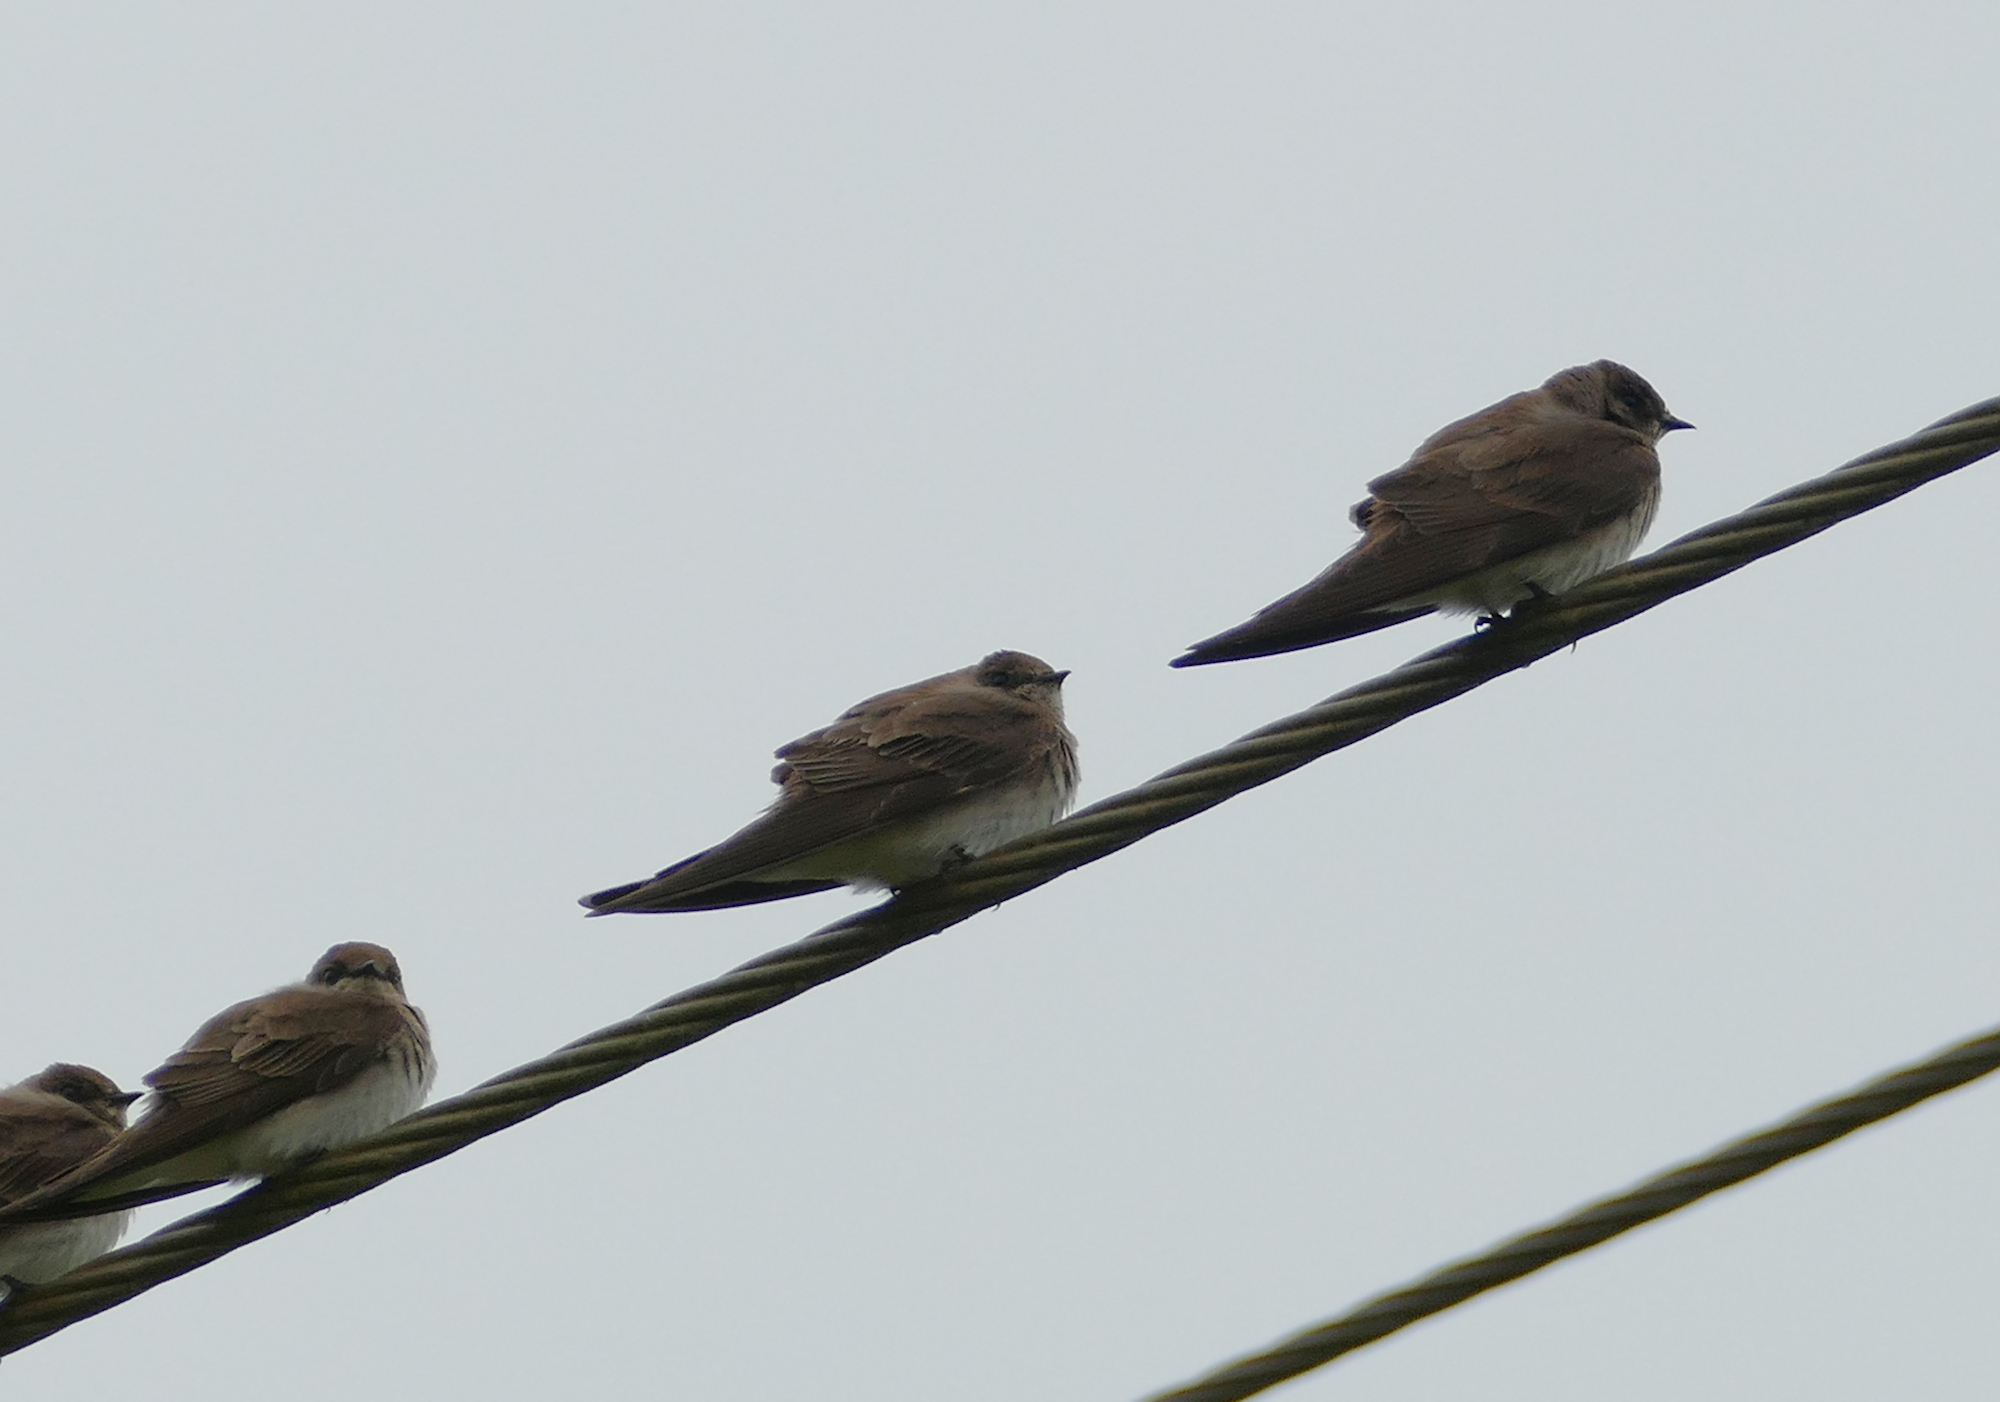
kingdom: Animalia
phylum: Chordata
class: Aves
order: Passeriformes
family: Hirundinidae
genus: Stelgidopteryx
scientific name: Stelgidopteryx serripennis
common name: Northern rough-winged swallow
